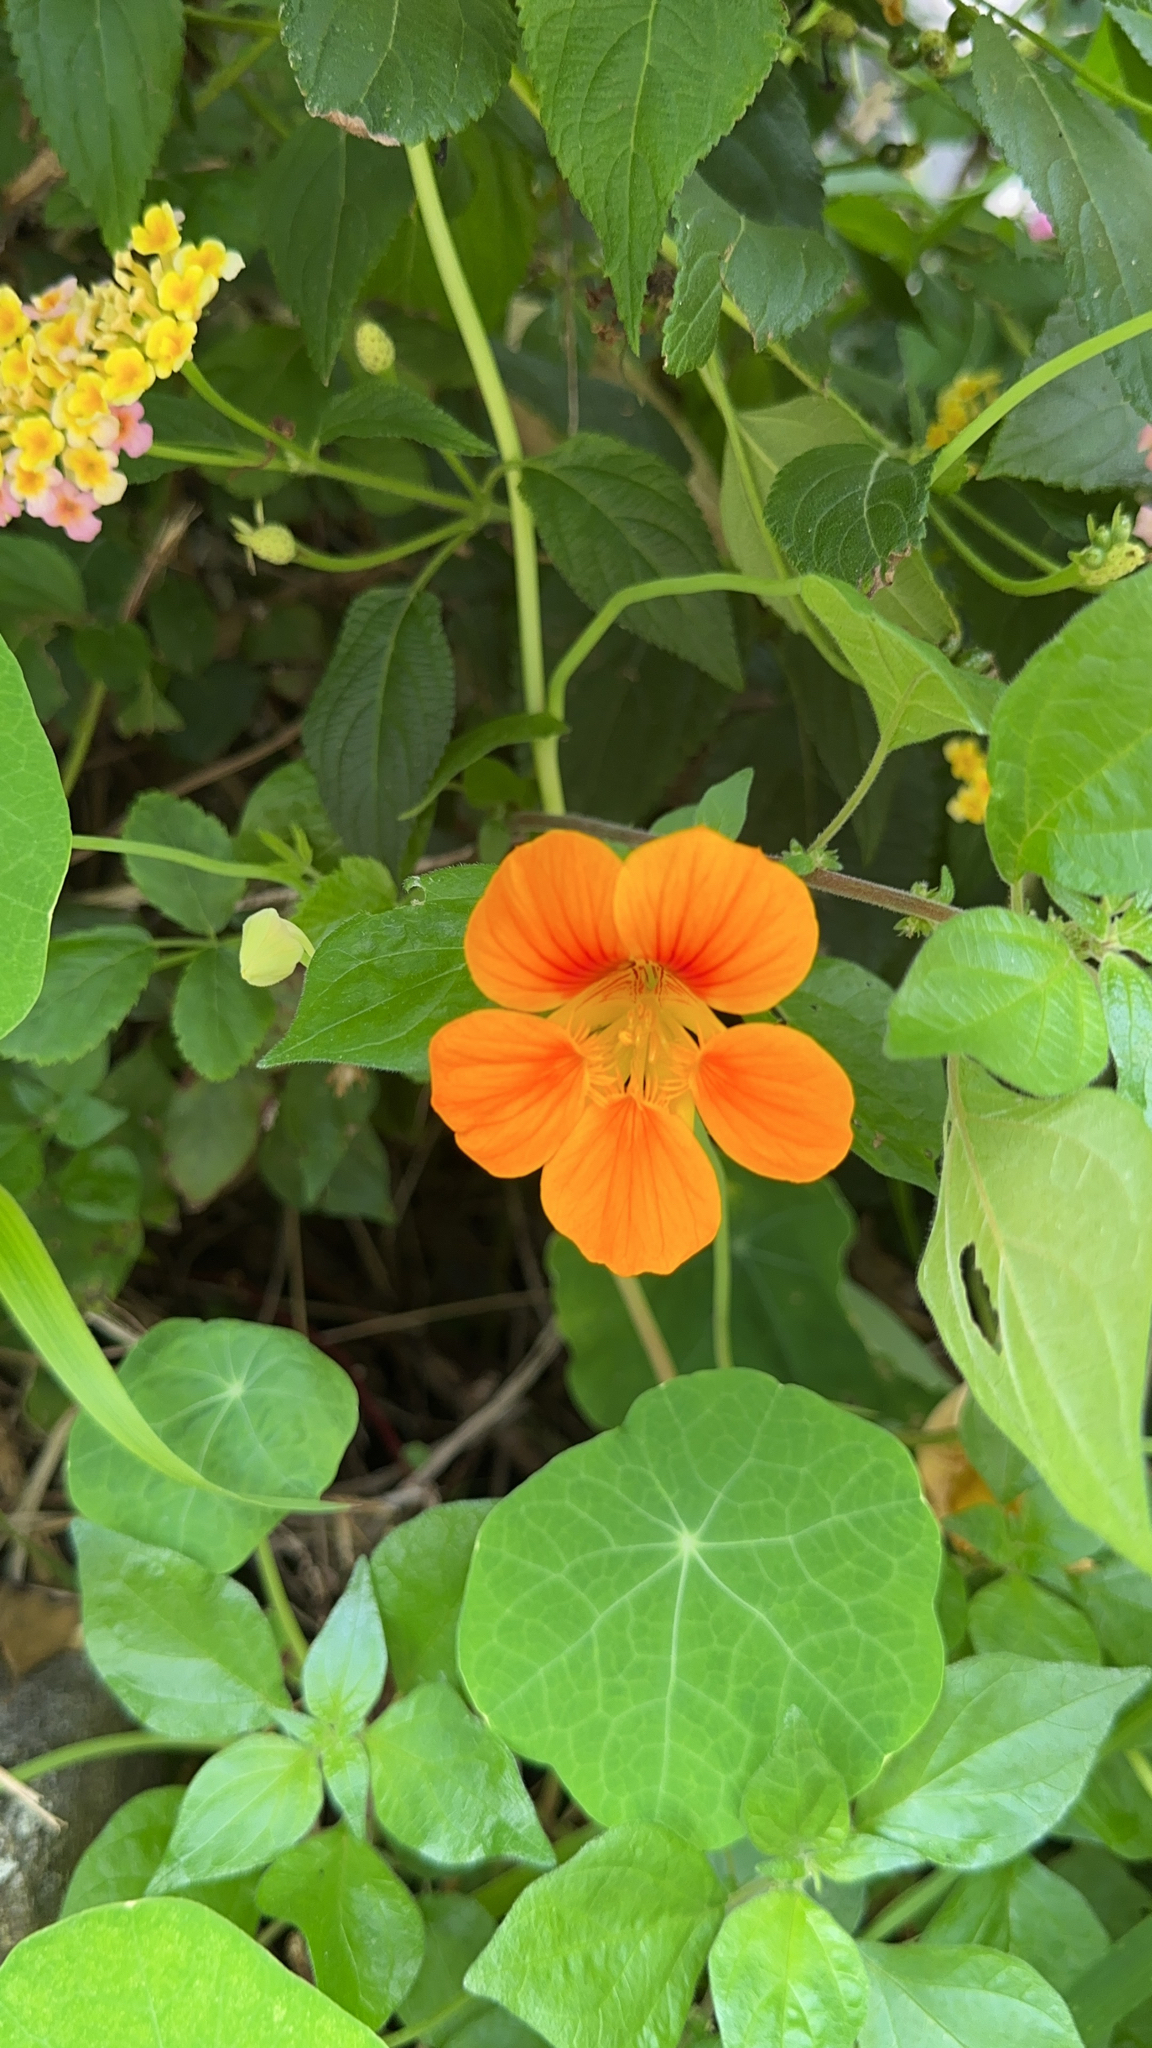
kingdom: Plantae
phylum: Tracheophyta
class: Magnoliopsida
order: Brassicales
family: Tropaeolaceae
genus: Tropaeolum
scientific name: Tropaeolum majus
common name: Nasturtium
